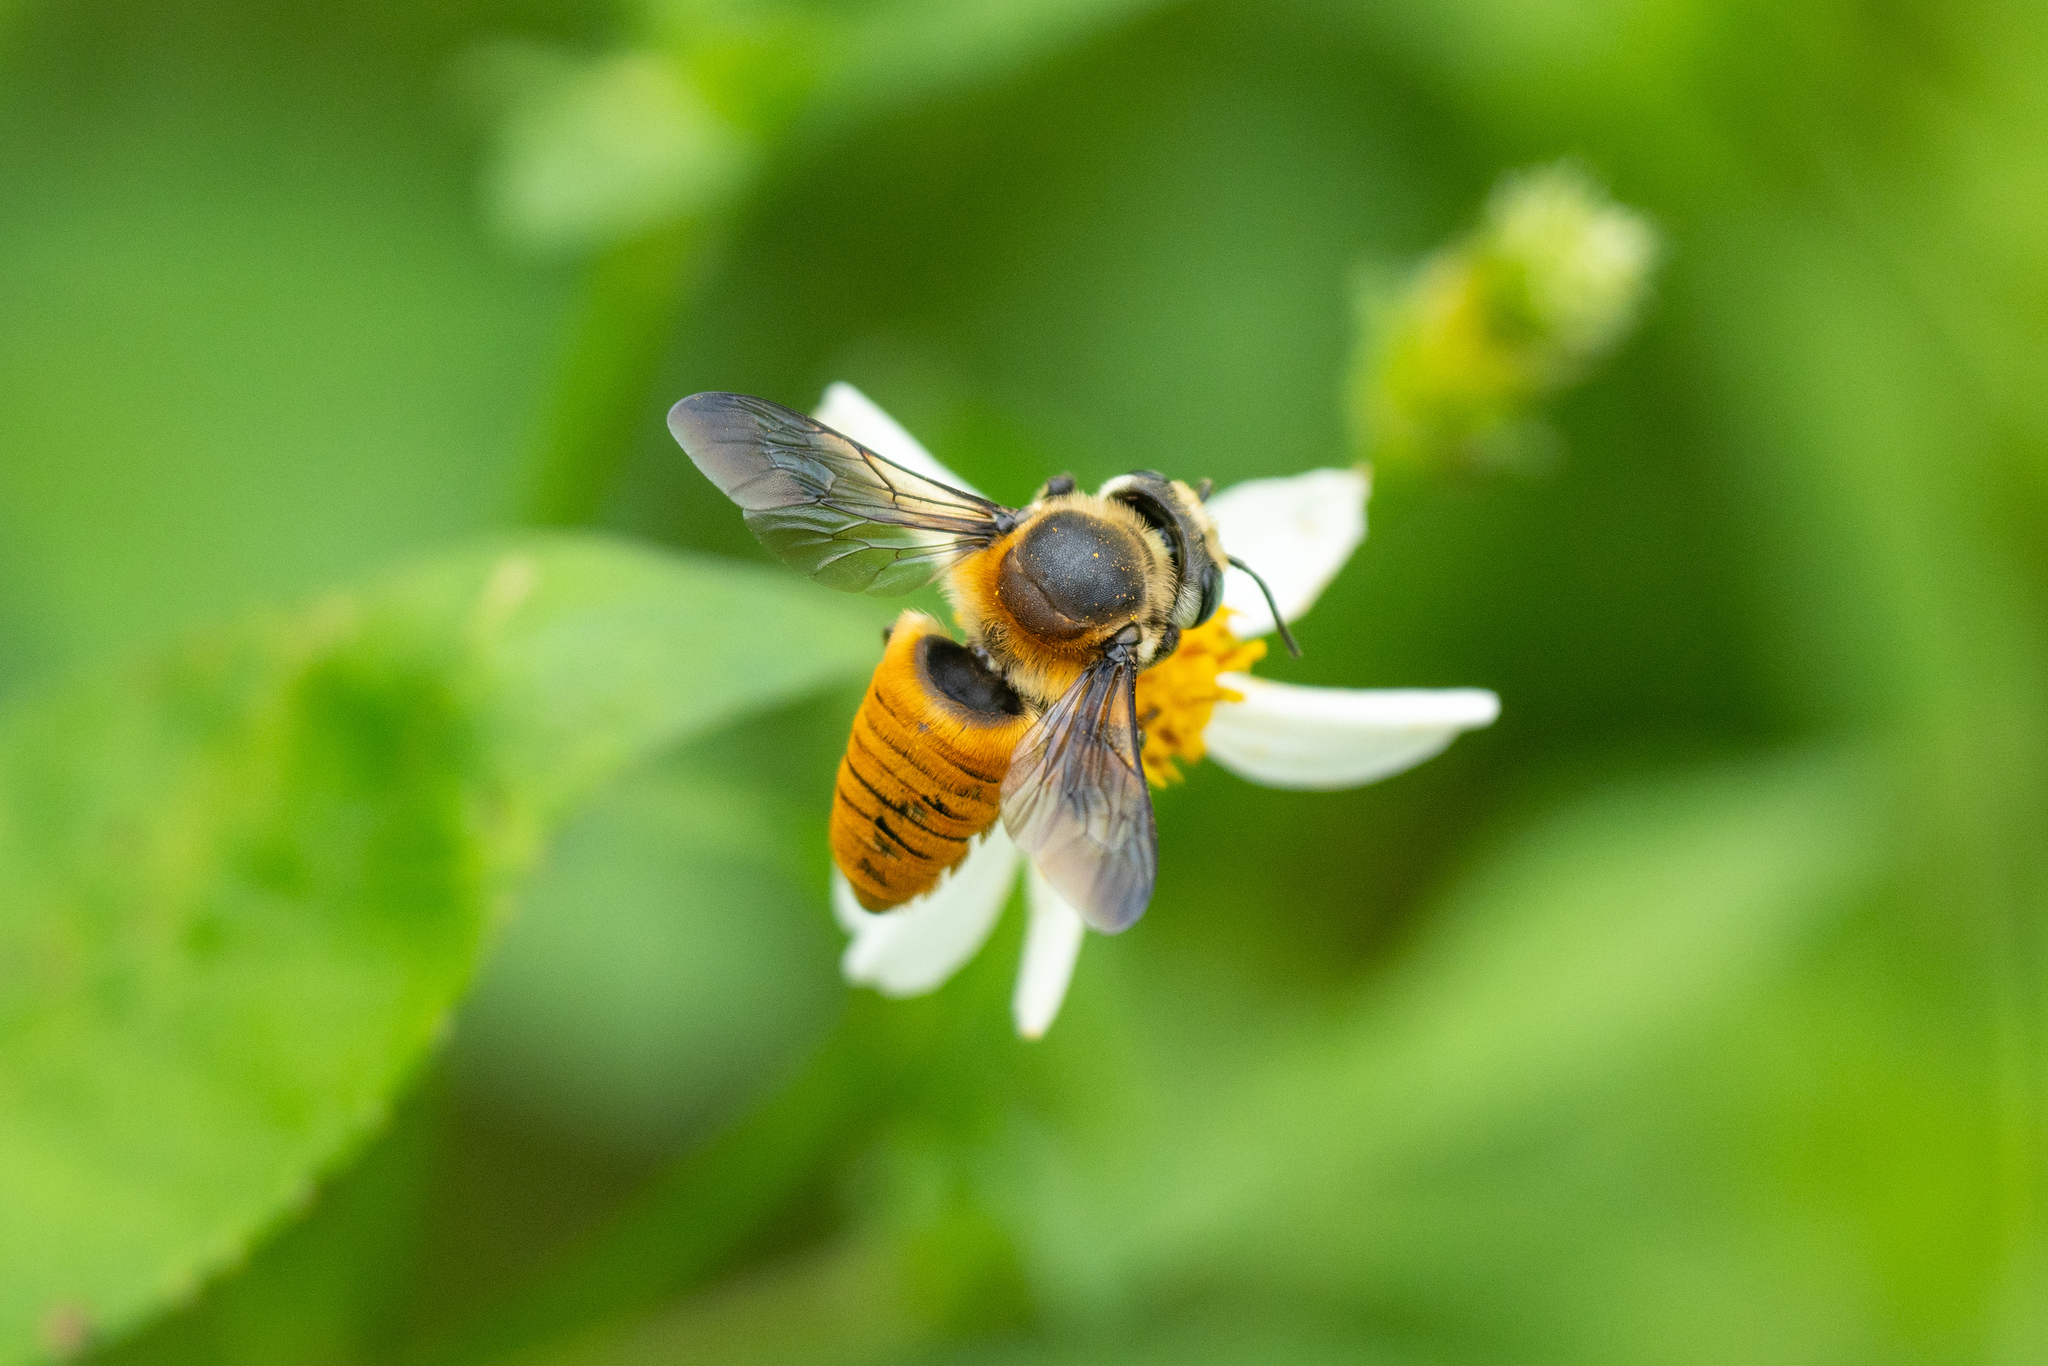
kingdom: Animalia
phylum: Arthropoda
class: Insecta
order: Hymenoptera
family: Megachilidae
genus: Megachile
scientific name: Megachile bicolor
